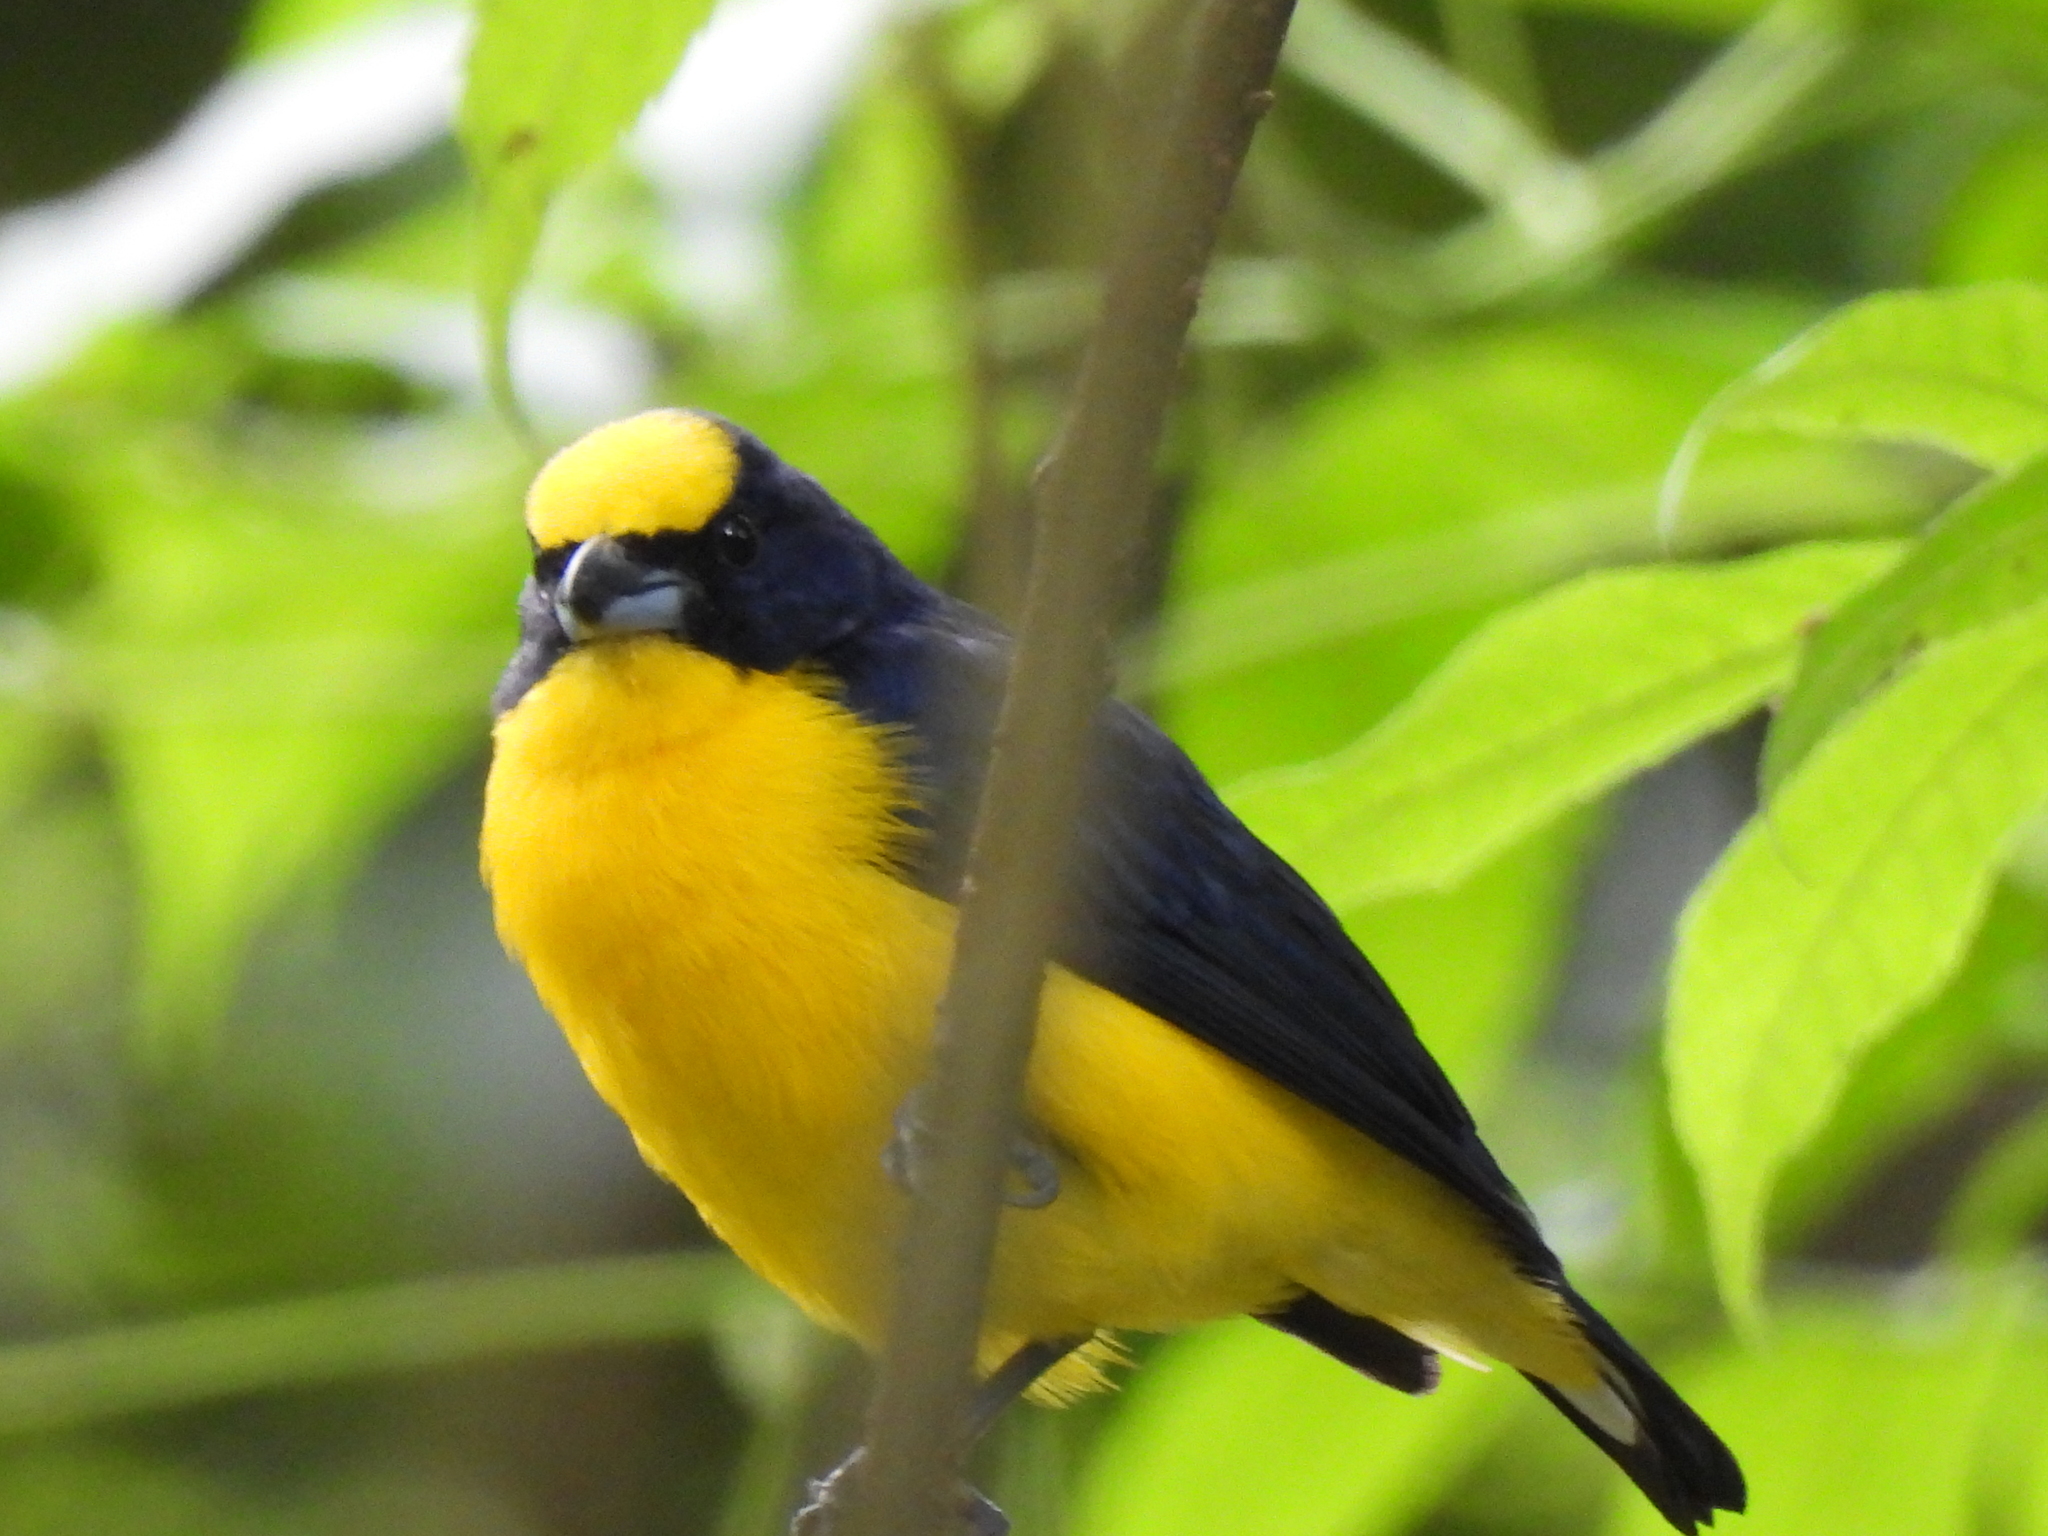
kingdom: Animalia
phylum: Chordata
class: Aves
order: Passeriformes
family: Fringillidae
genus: Euphonia
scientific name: Euphonia laniirostris
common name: Thick-billed euphonia
